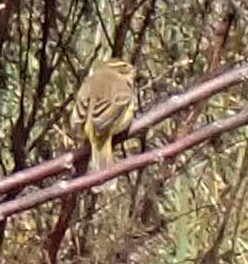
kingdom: Animalia
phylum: Chordata
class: Aves
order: Passeriformes
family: Parulidae
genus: Setophaga
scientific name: Setophaga palmarum
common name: Palm warbler
